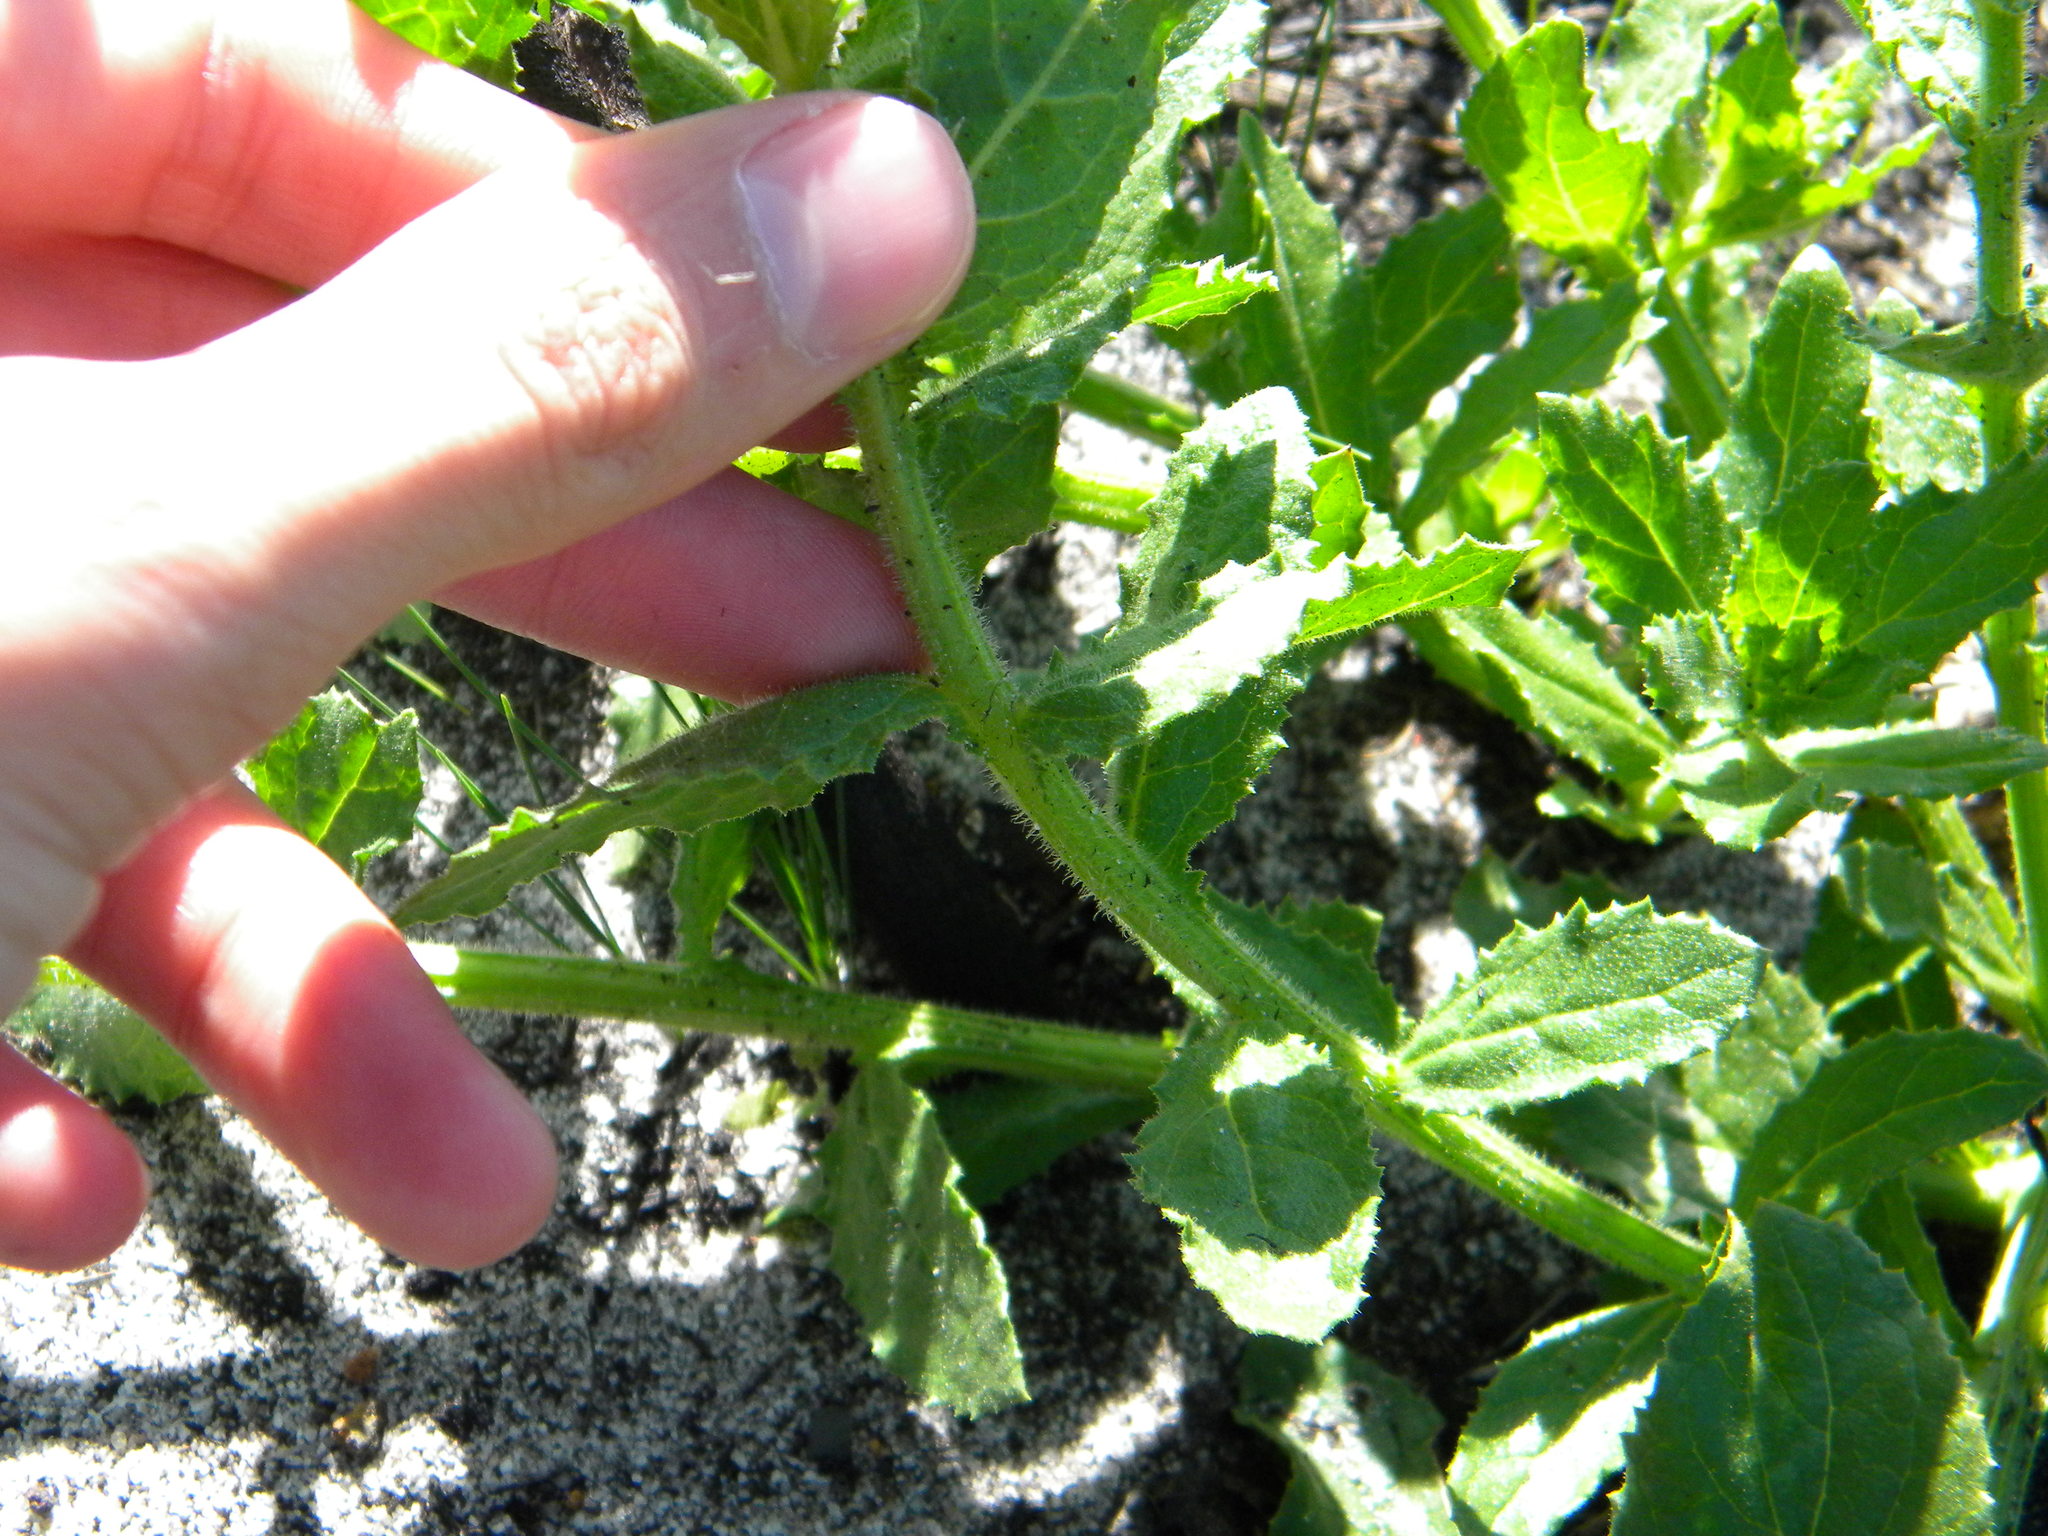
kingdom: Plantae
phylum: Tracheophyta
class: Magnoliopsida
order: Lamiales
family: Scrophulariaceae
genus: Oftia
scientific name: Oftia africana
